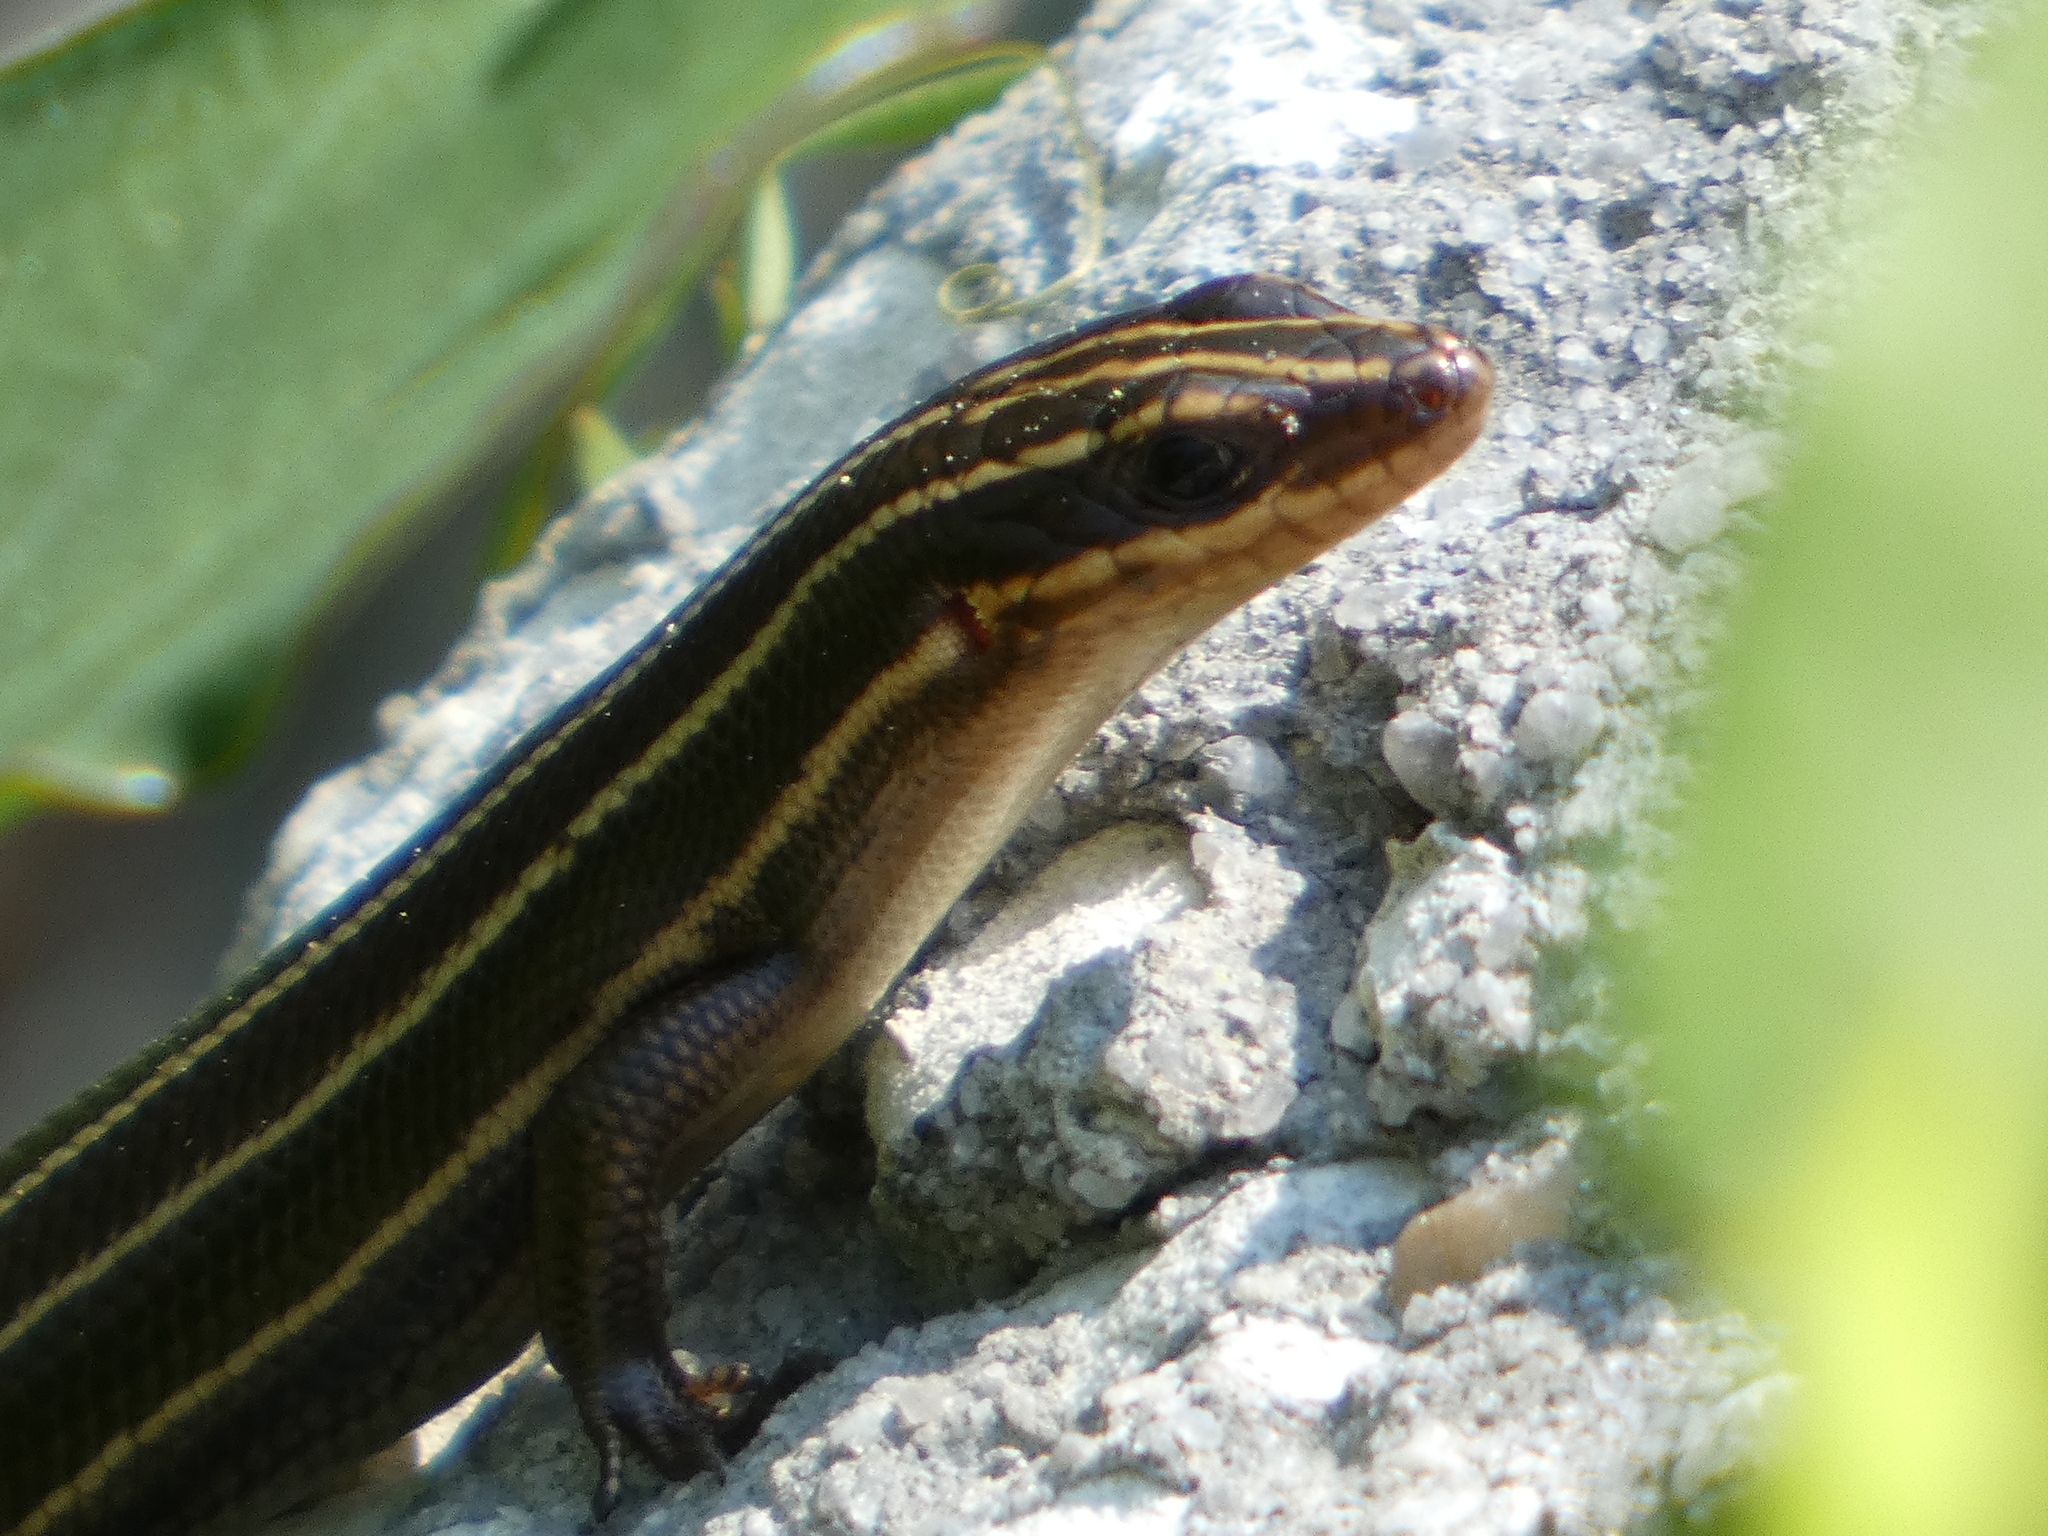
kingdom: Animalia
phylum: Chordata
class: Squamata
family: Scincidae
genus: Plestiodon
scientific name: Plestiodon inexpectatus
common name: Southeastern five-lined skink
